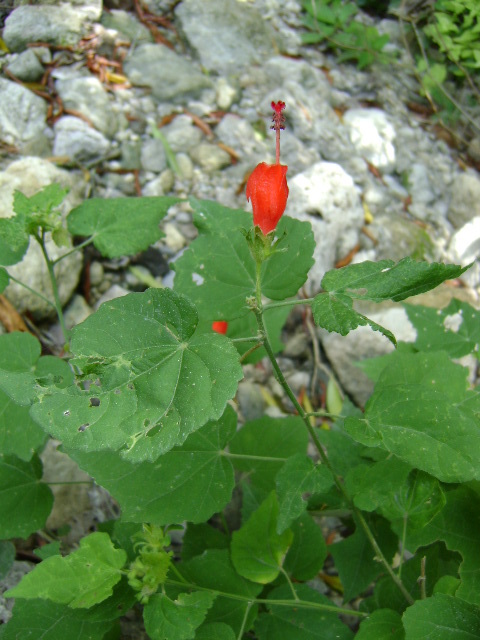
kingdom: Plantae
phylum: Tracheophyta
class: Magnoliopsida
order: Malvales
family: Malvaceae
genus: Malvaviscus
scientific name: Malvaviscus arboreus
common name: Wax mallow
